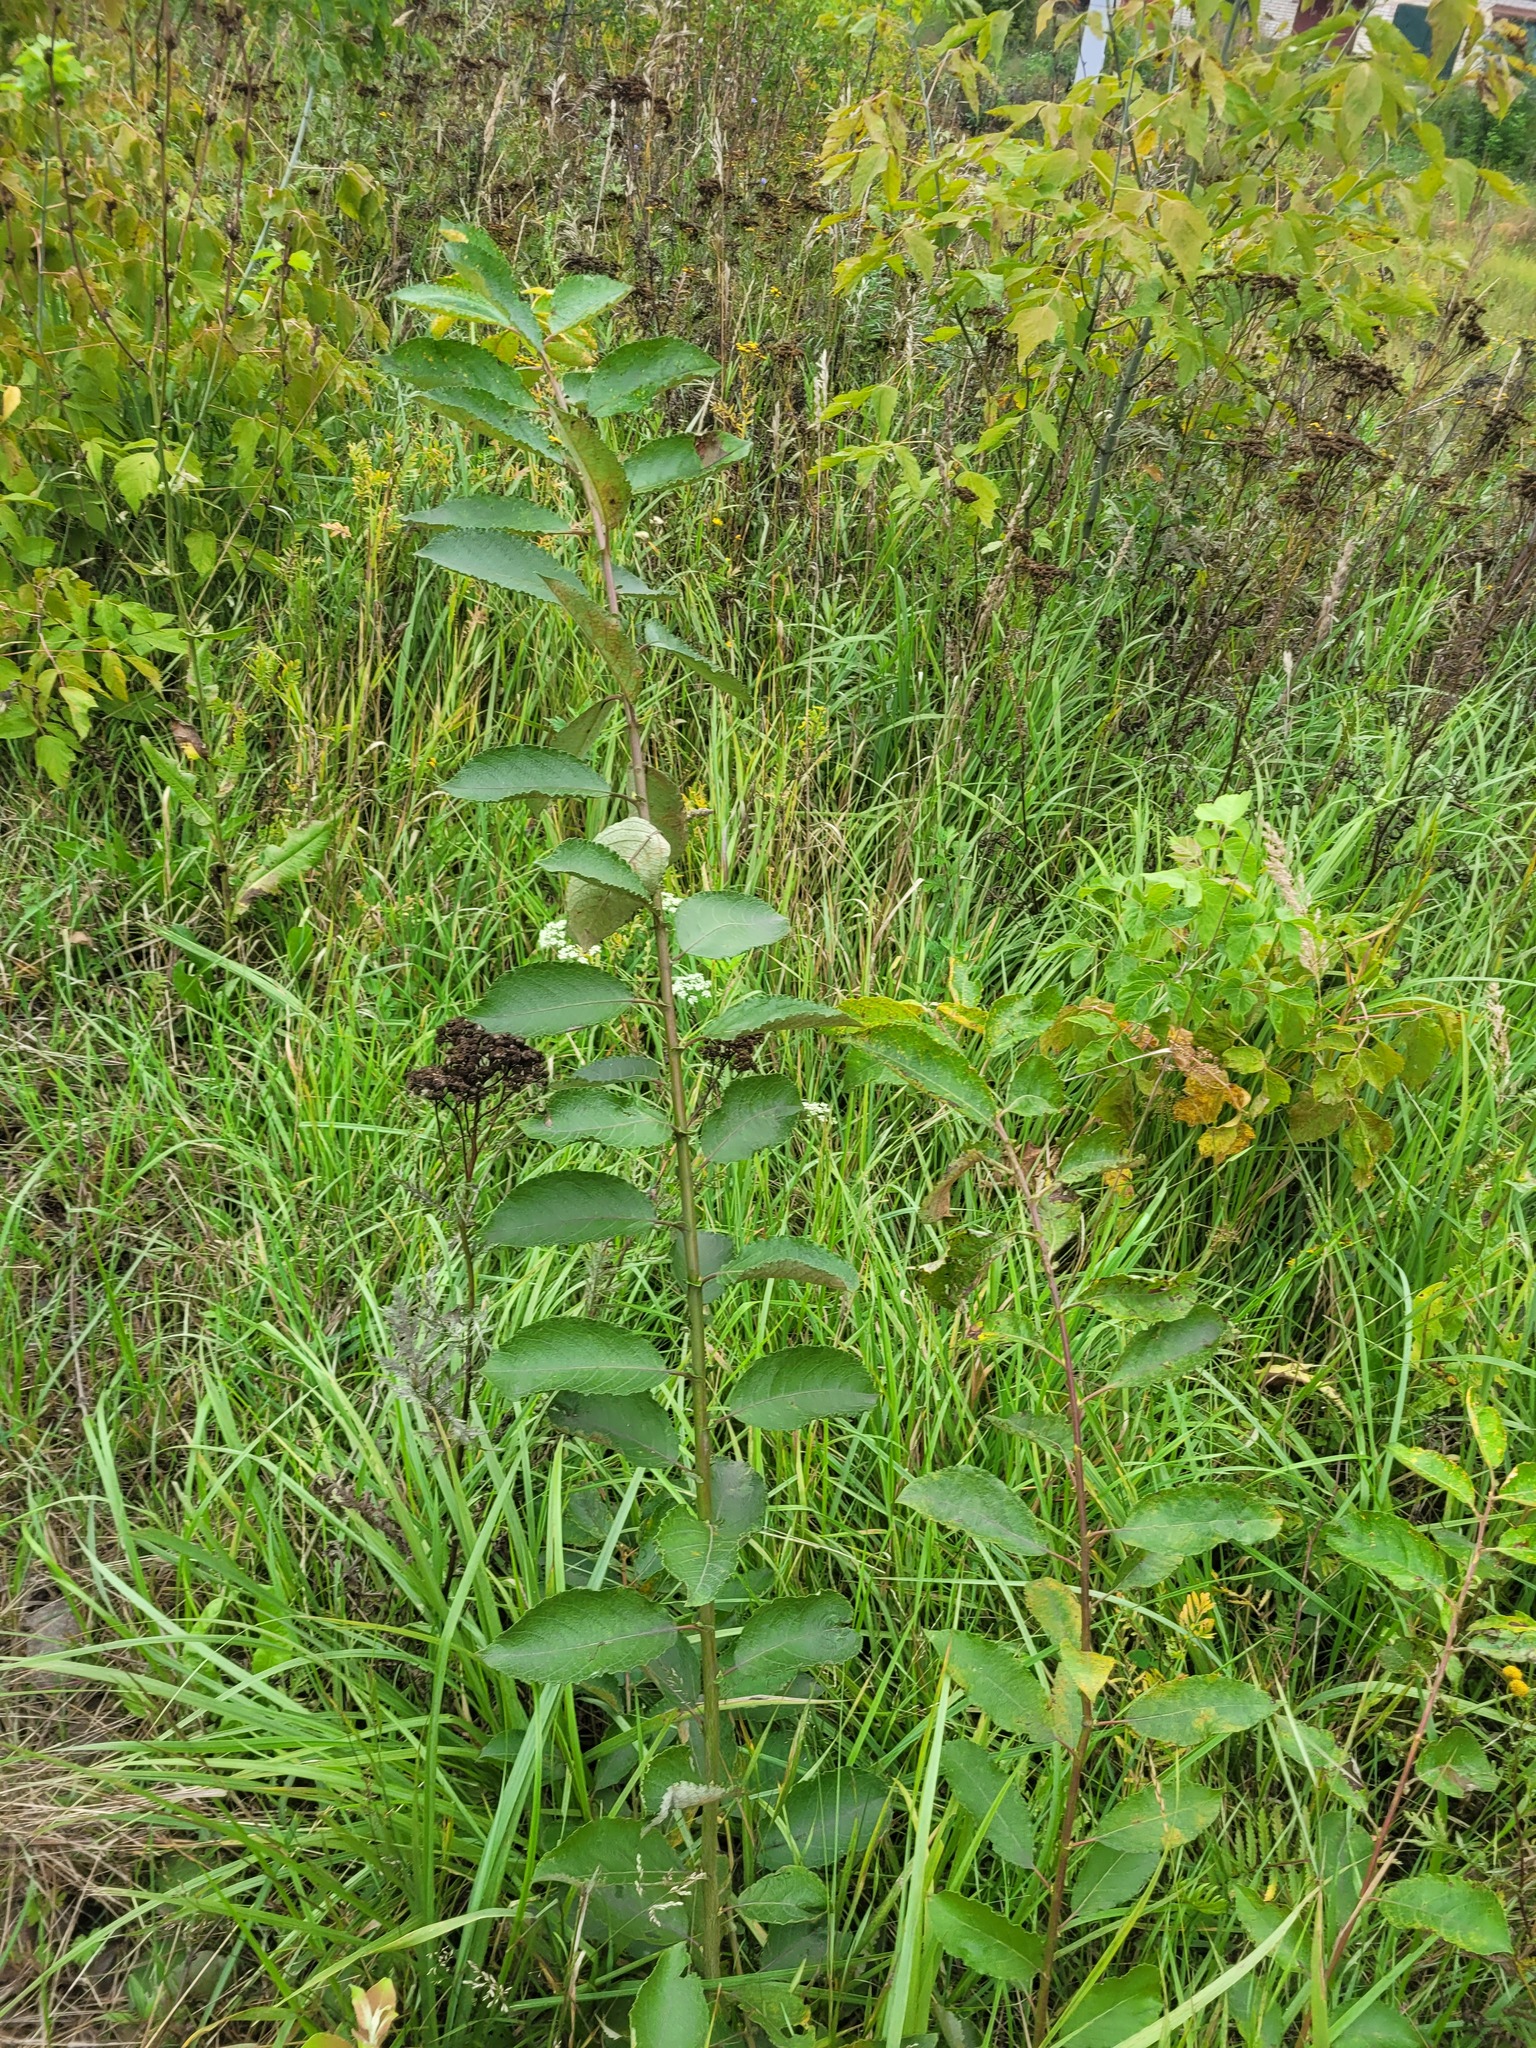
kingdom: Plantae
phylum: Tracheophyta
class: Magnoliopsida
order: Malpighiales
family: Salicaceae
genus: Salix
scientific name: Salix caprea
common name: Goat willow
